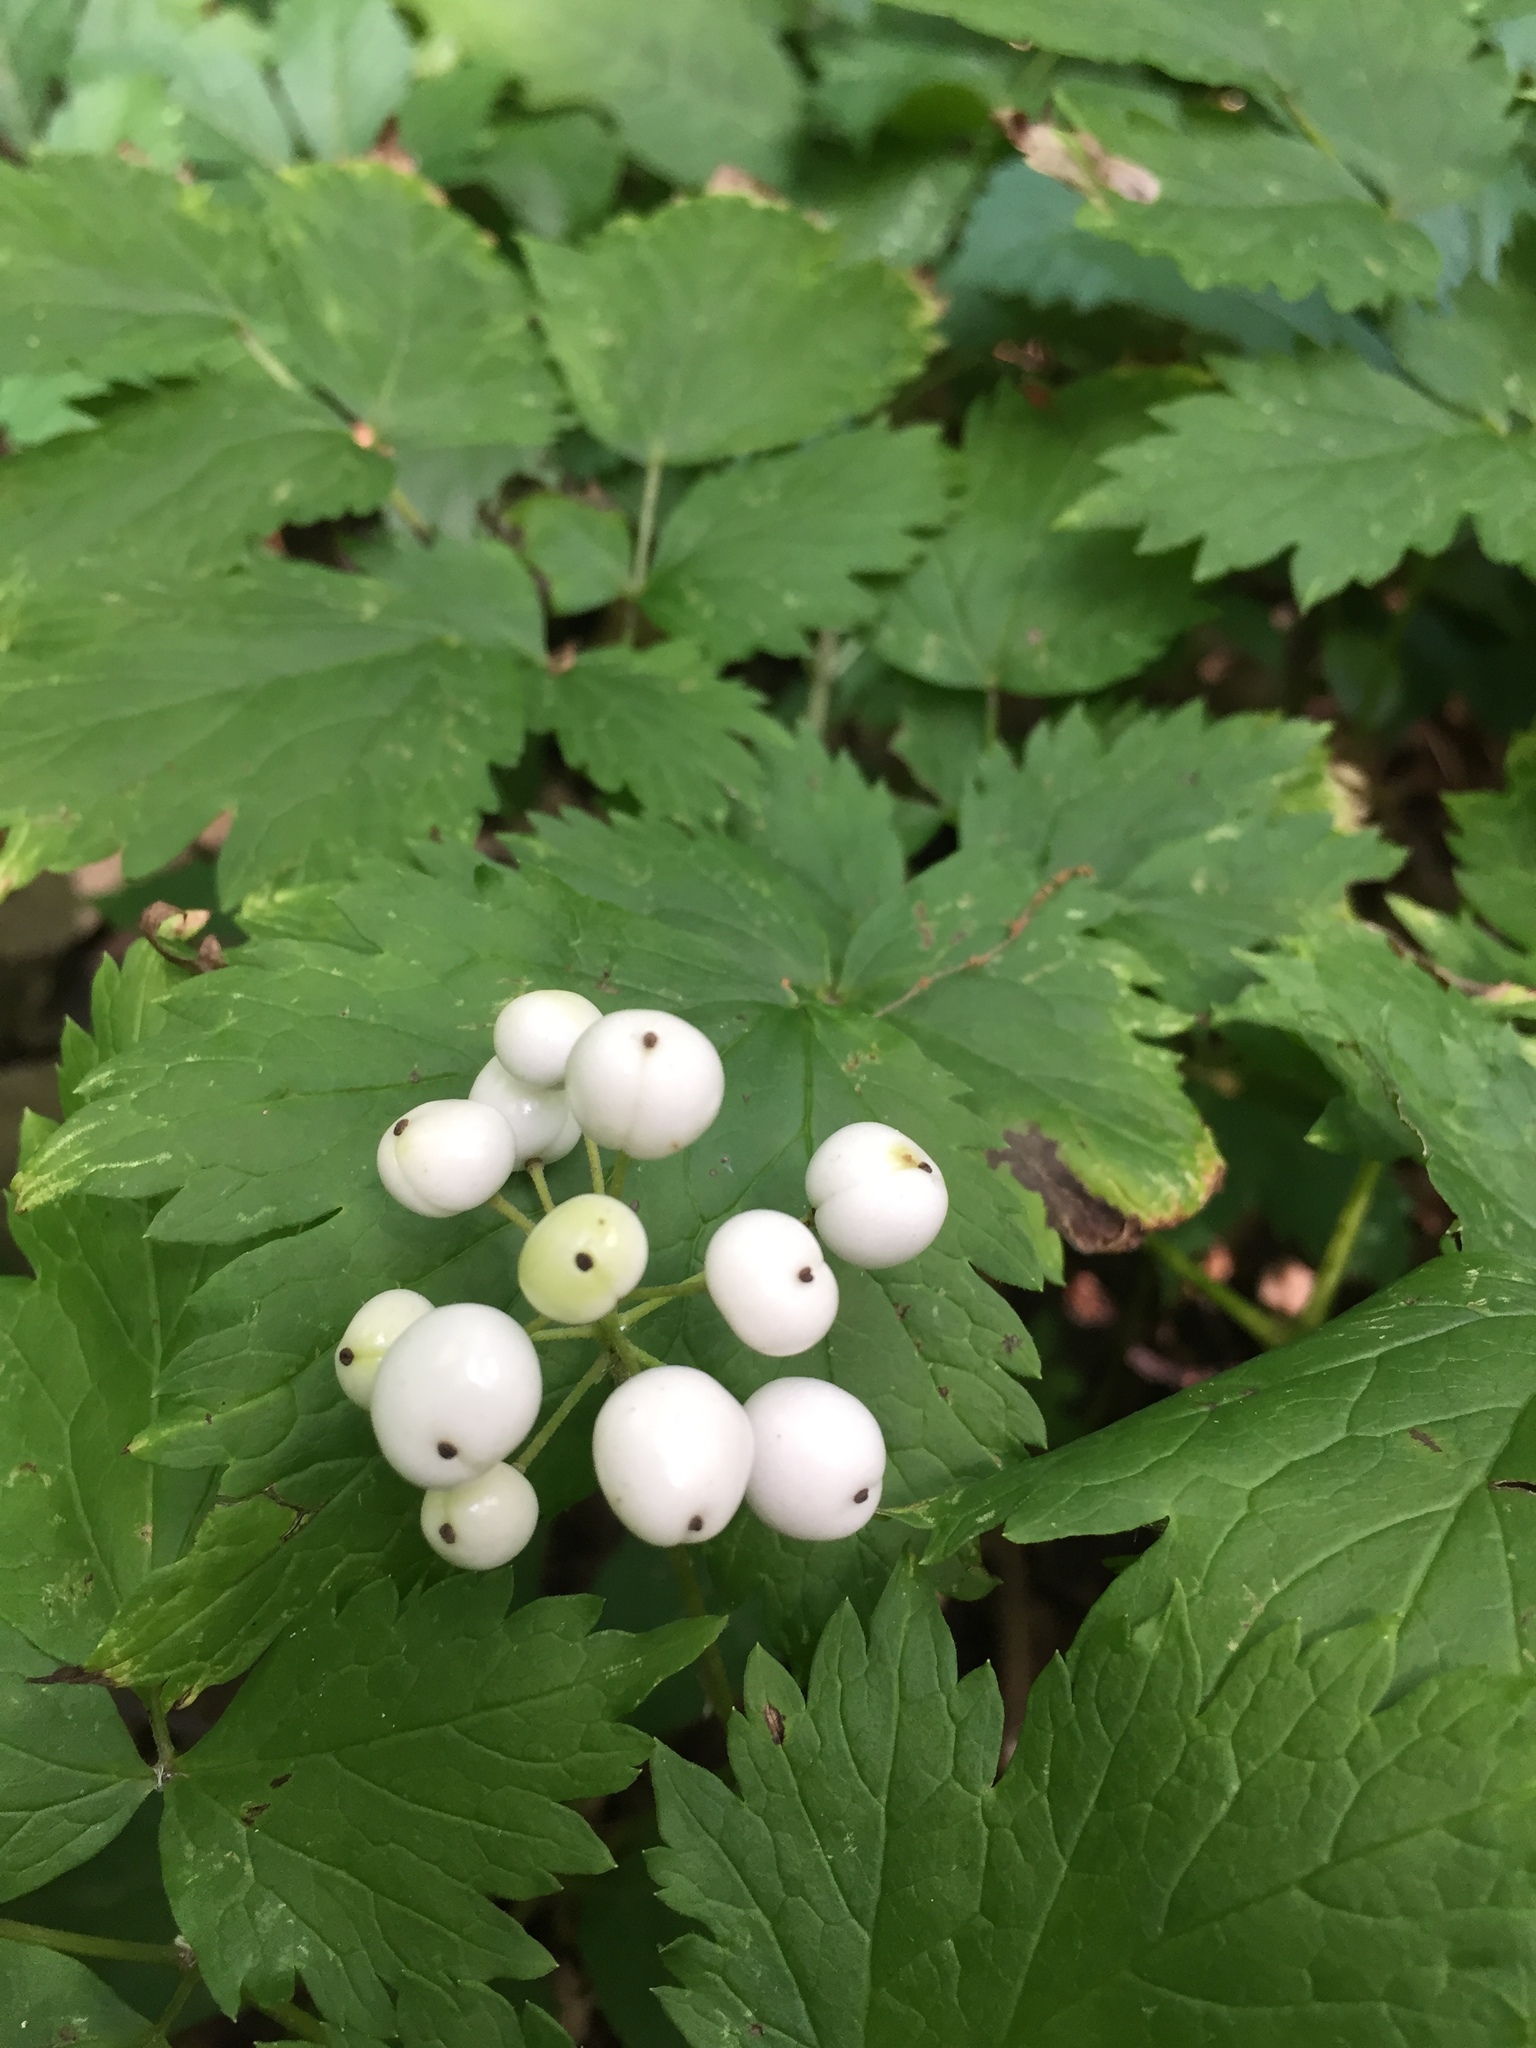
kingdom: Plantae
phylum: Tracheophyta
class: Magnoliopsida
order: Ranunculales
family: Ranunculaceae
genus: Actaea
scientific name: Actaea rubra
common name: Red baneberry
